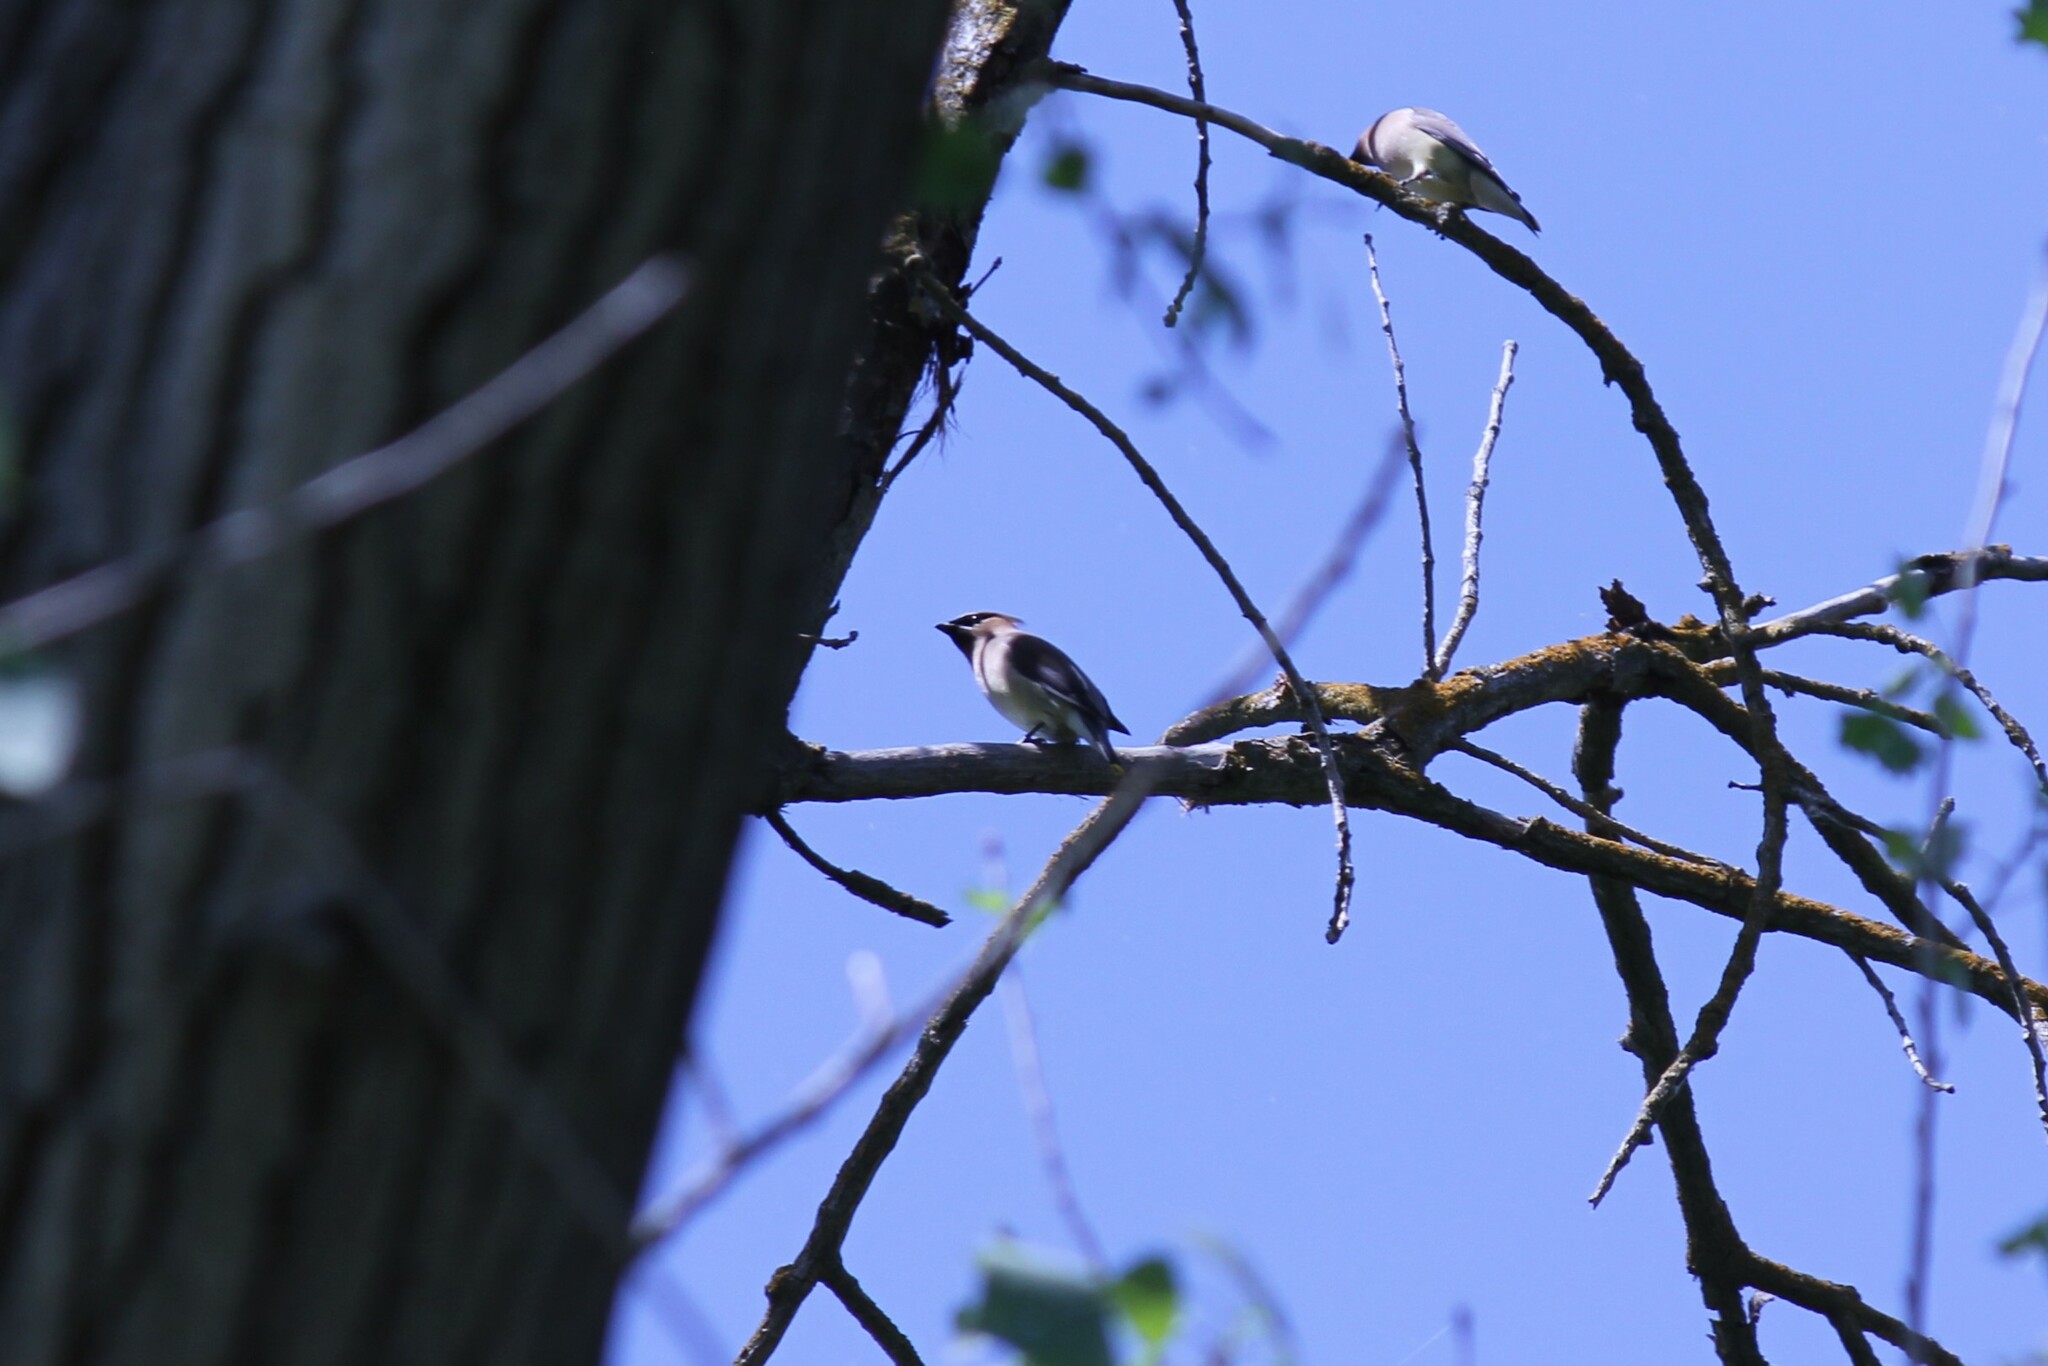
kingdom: Animalia
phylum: Chordata
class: Aves
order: Passeriformes
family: Bombycillidae
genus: Bombycilla
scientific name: Bombycilla cedrorum
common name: Cedar waxwing
